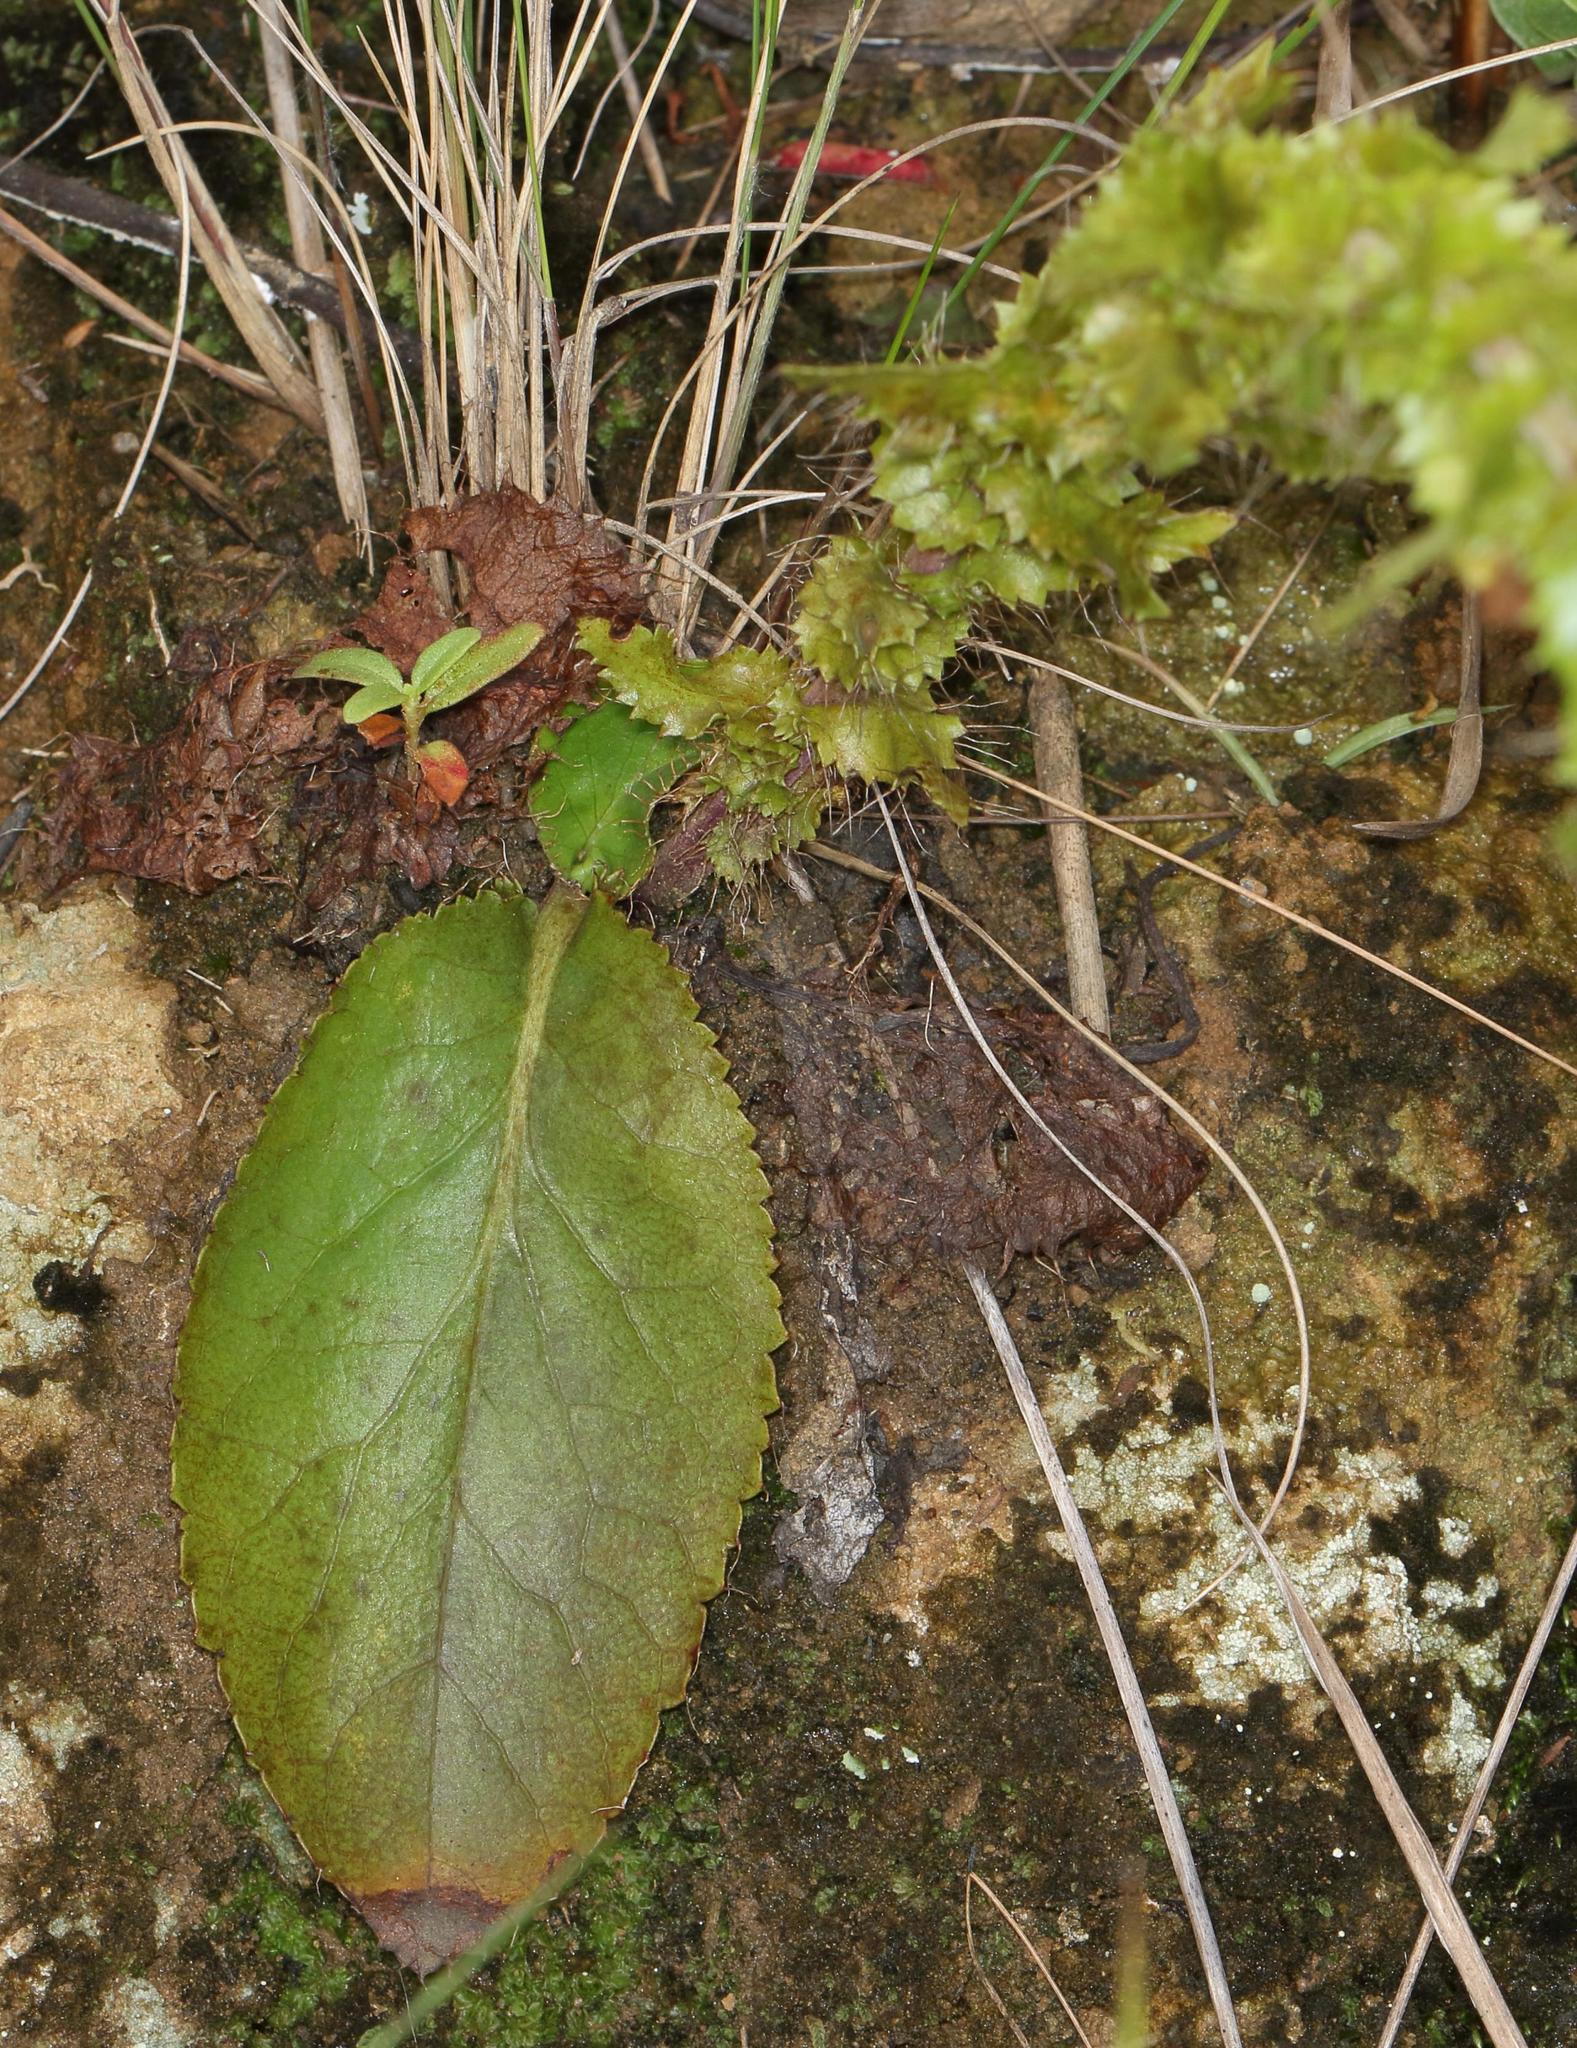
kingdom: Plantae
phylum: Tracheophyta
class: Magnoliopsida
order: Apiales
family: Apiaceae
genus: Alepidea
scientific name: Alepidea setifera
